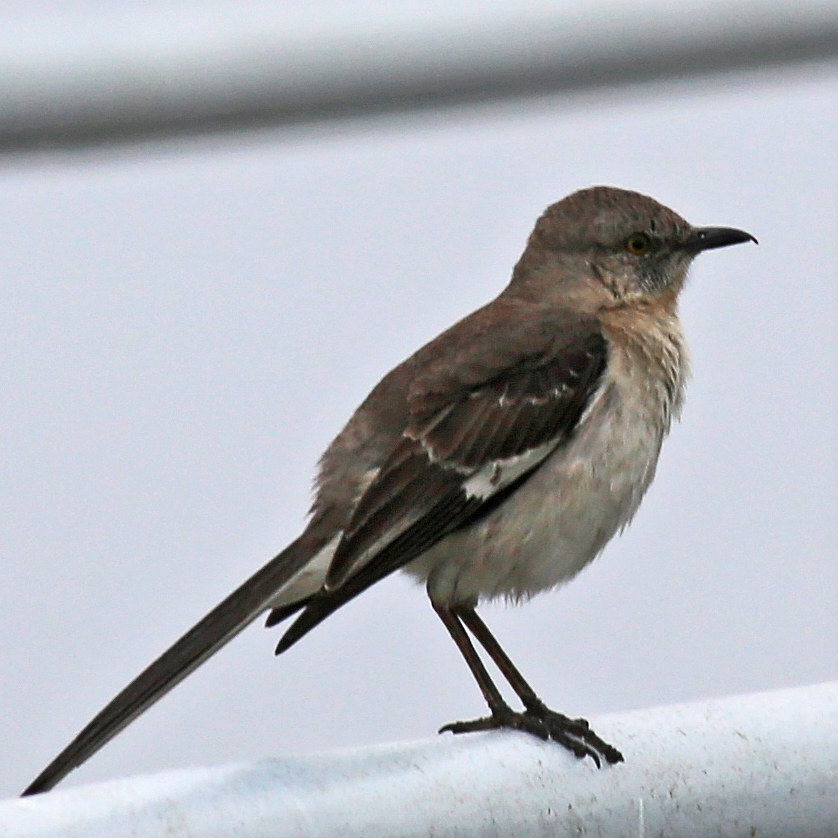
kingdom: Animalia
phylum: Chordata
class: Aves
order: Passeriformes
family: Mimidae
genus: Mimus
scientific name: Mimus polyglottos
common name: Northern mockingbird
